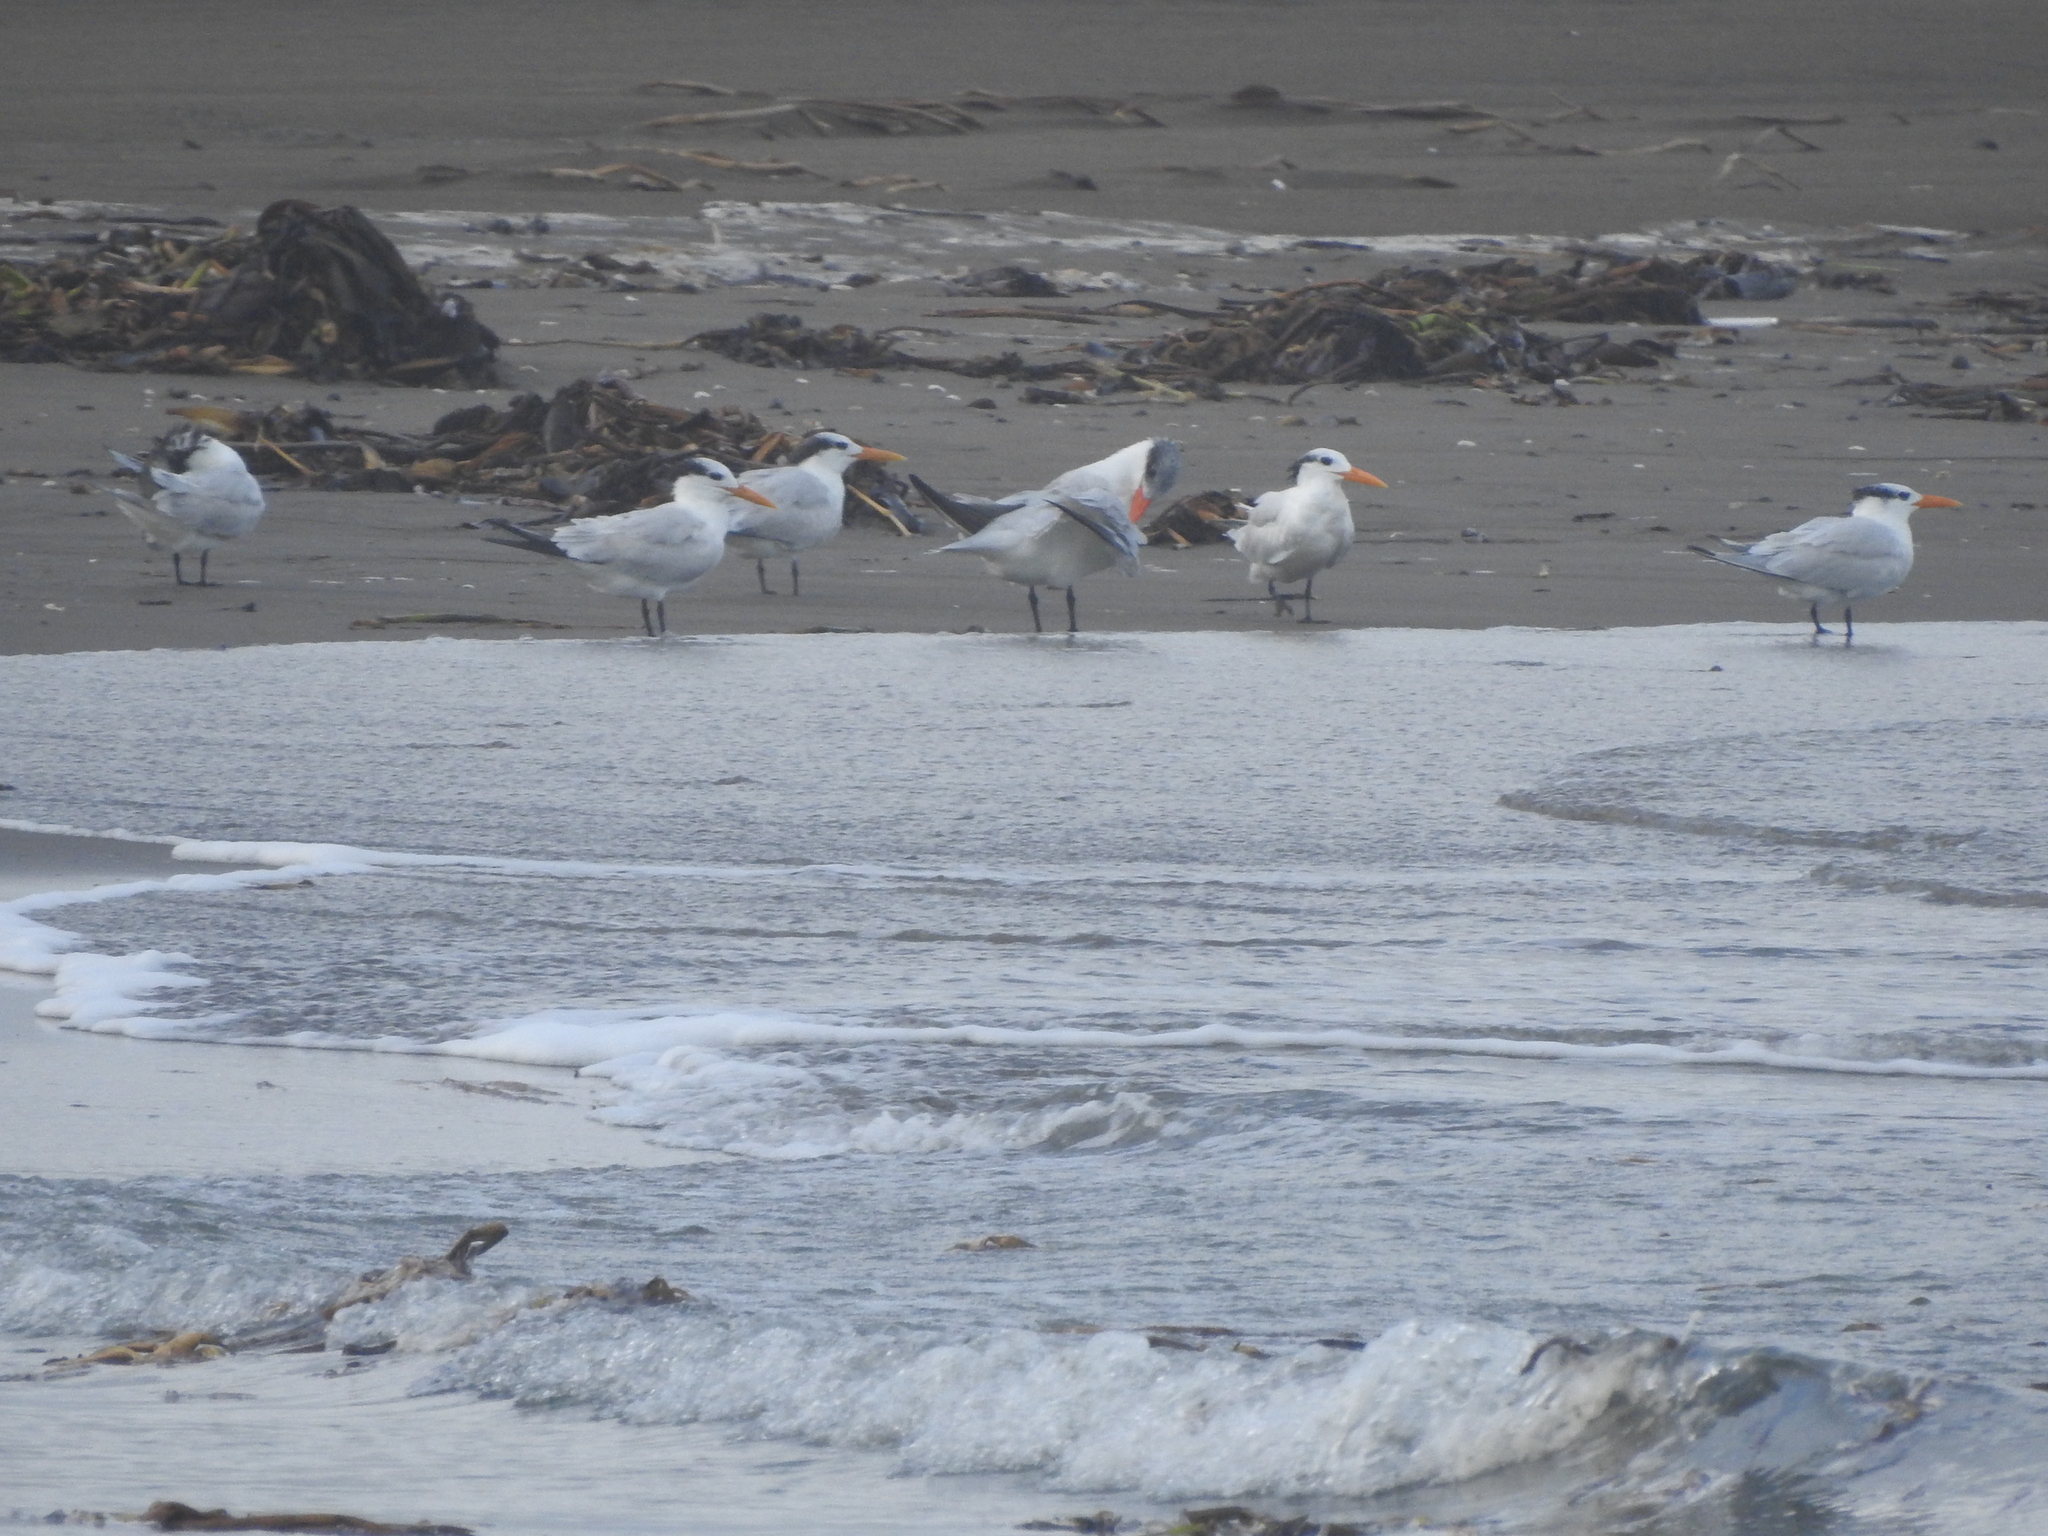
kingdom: Animalia
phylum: Chordata
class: Aves
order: Charadriiformes
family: Laridae
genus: Thalasseus
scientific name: Thalasseus maximus
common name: Royal tern
